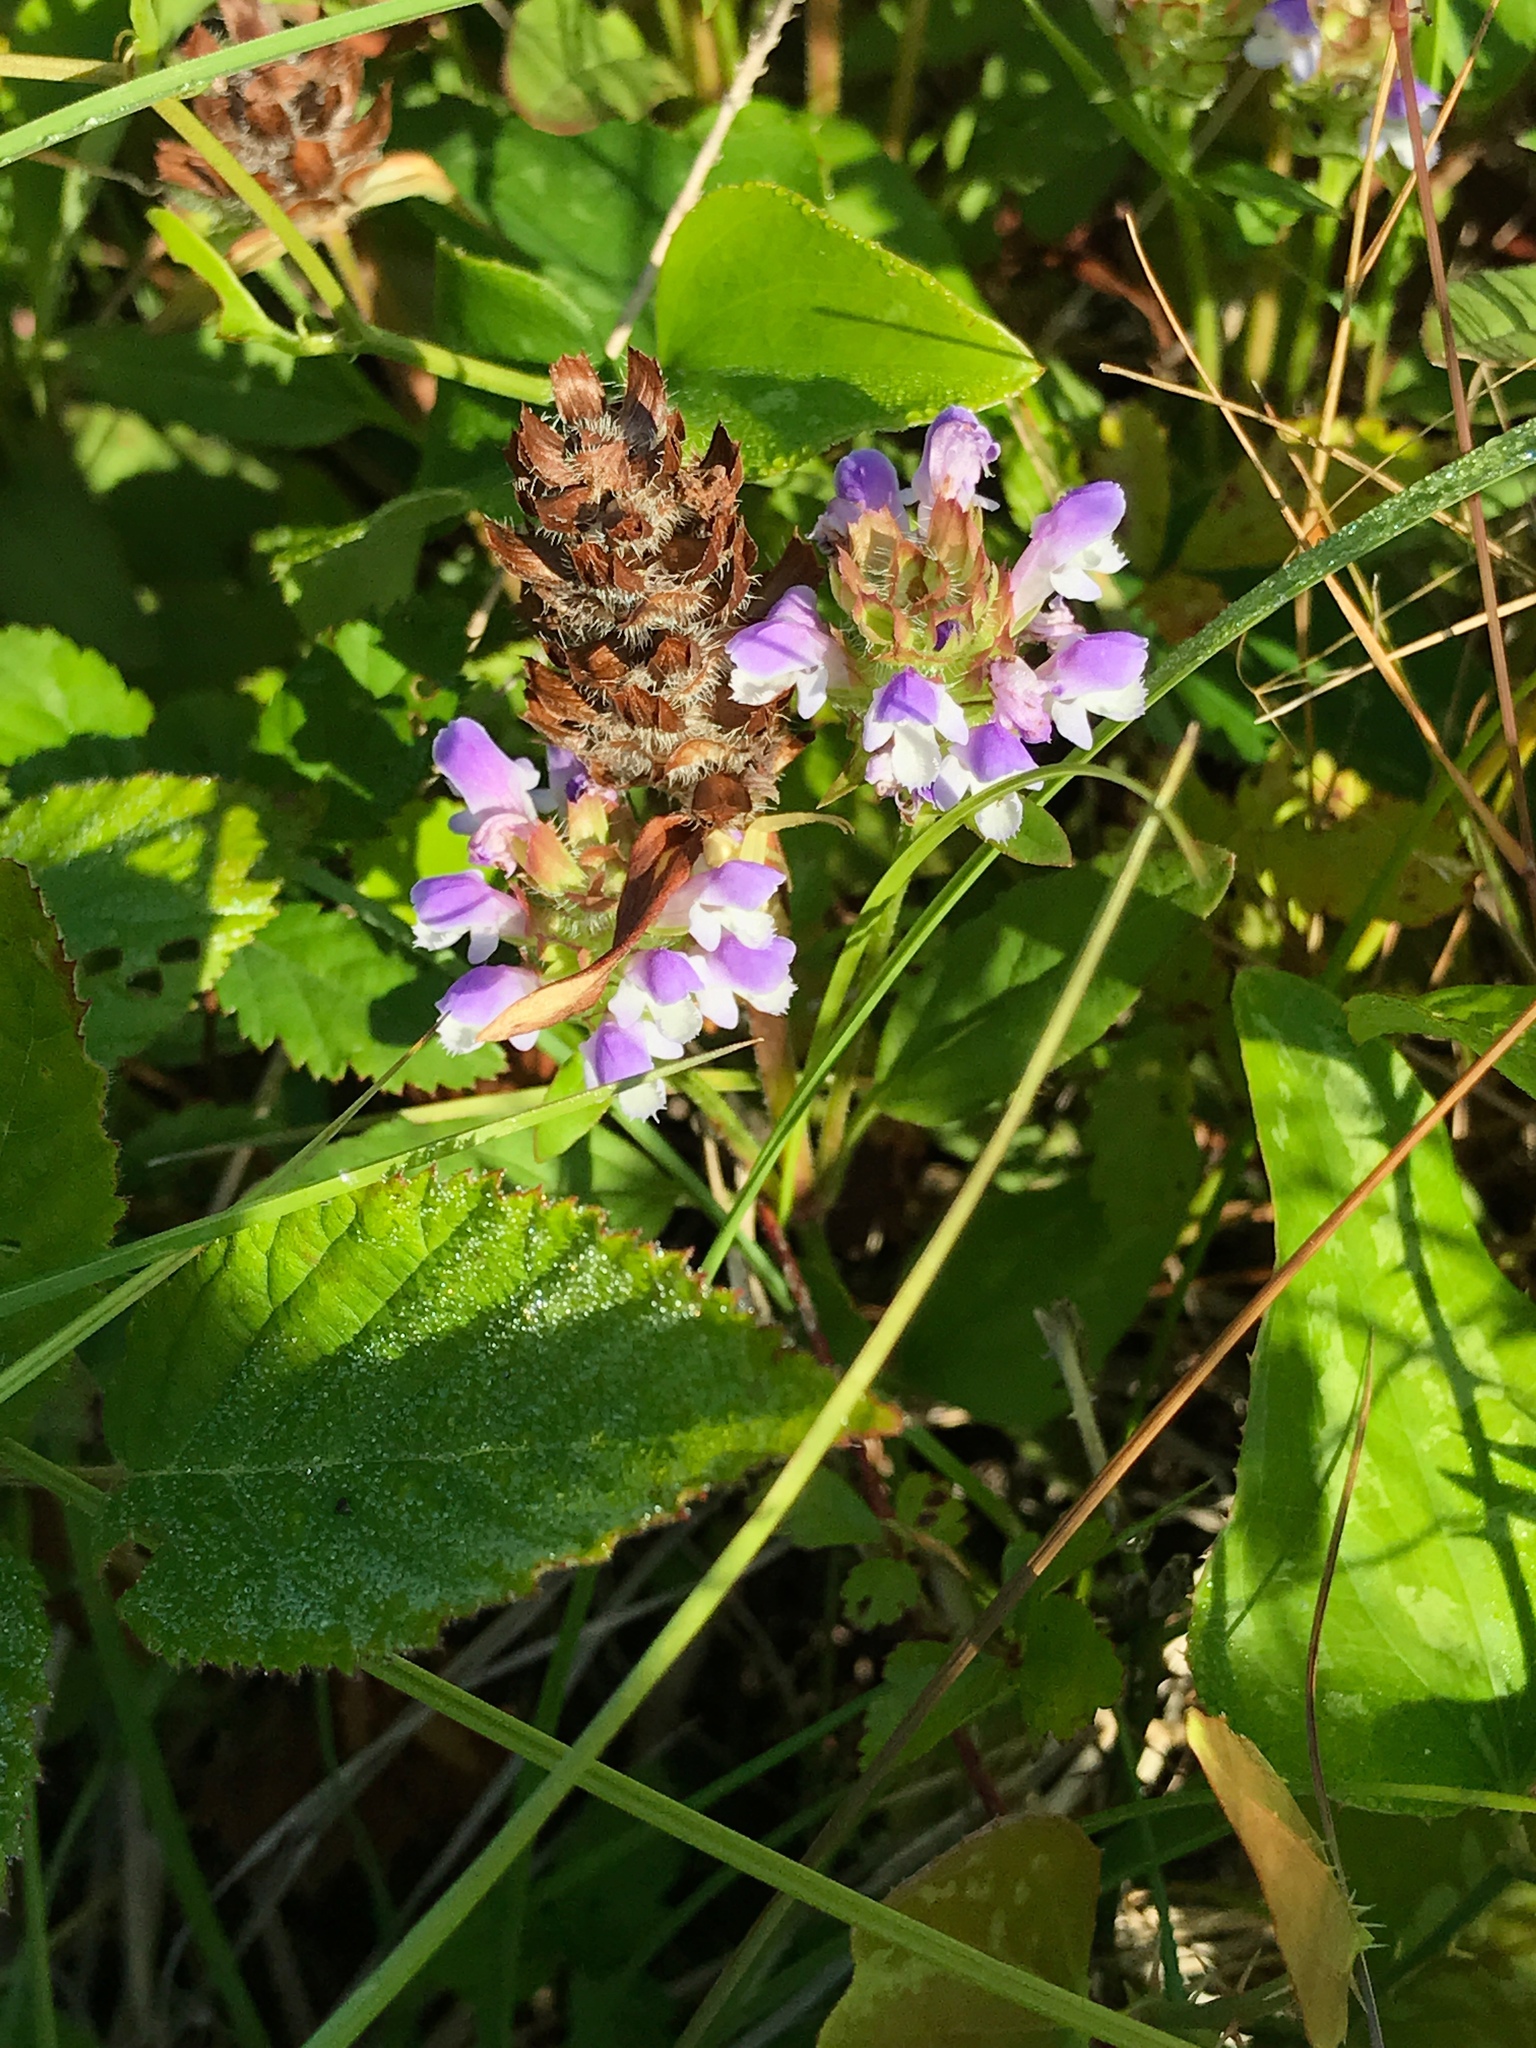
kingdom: Plantae
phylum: Tracheophyta
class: Magnoliopsida
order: Lamiales
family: Lamiaceae
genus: Prunella
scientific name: Prunella vulgaris
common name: Heal-all
